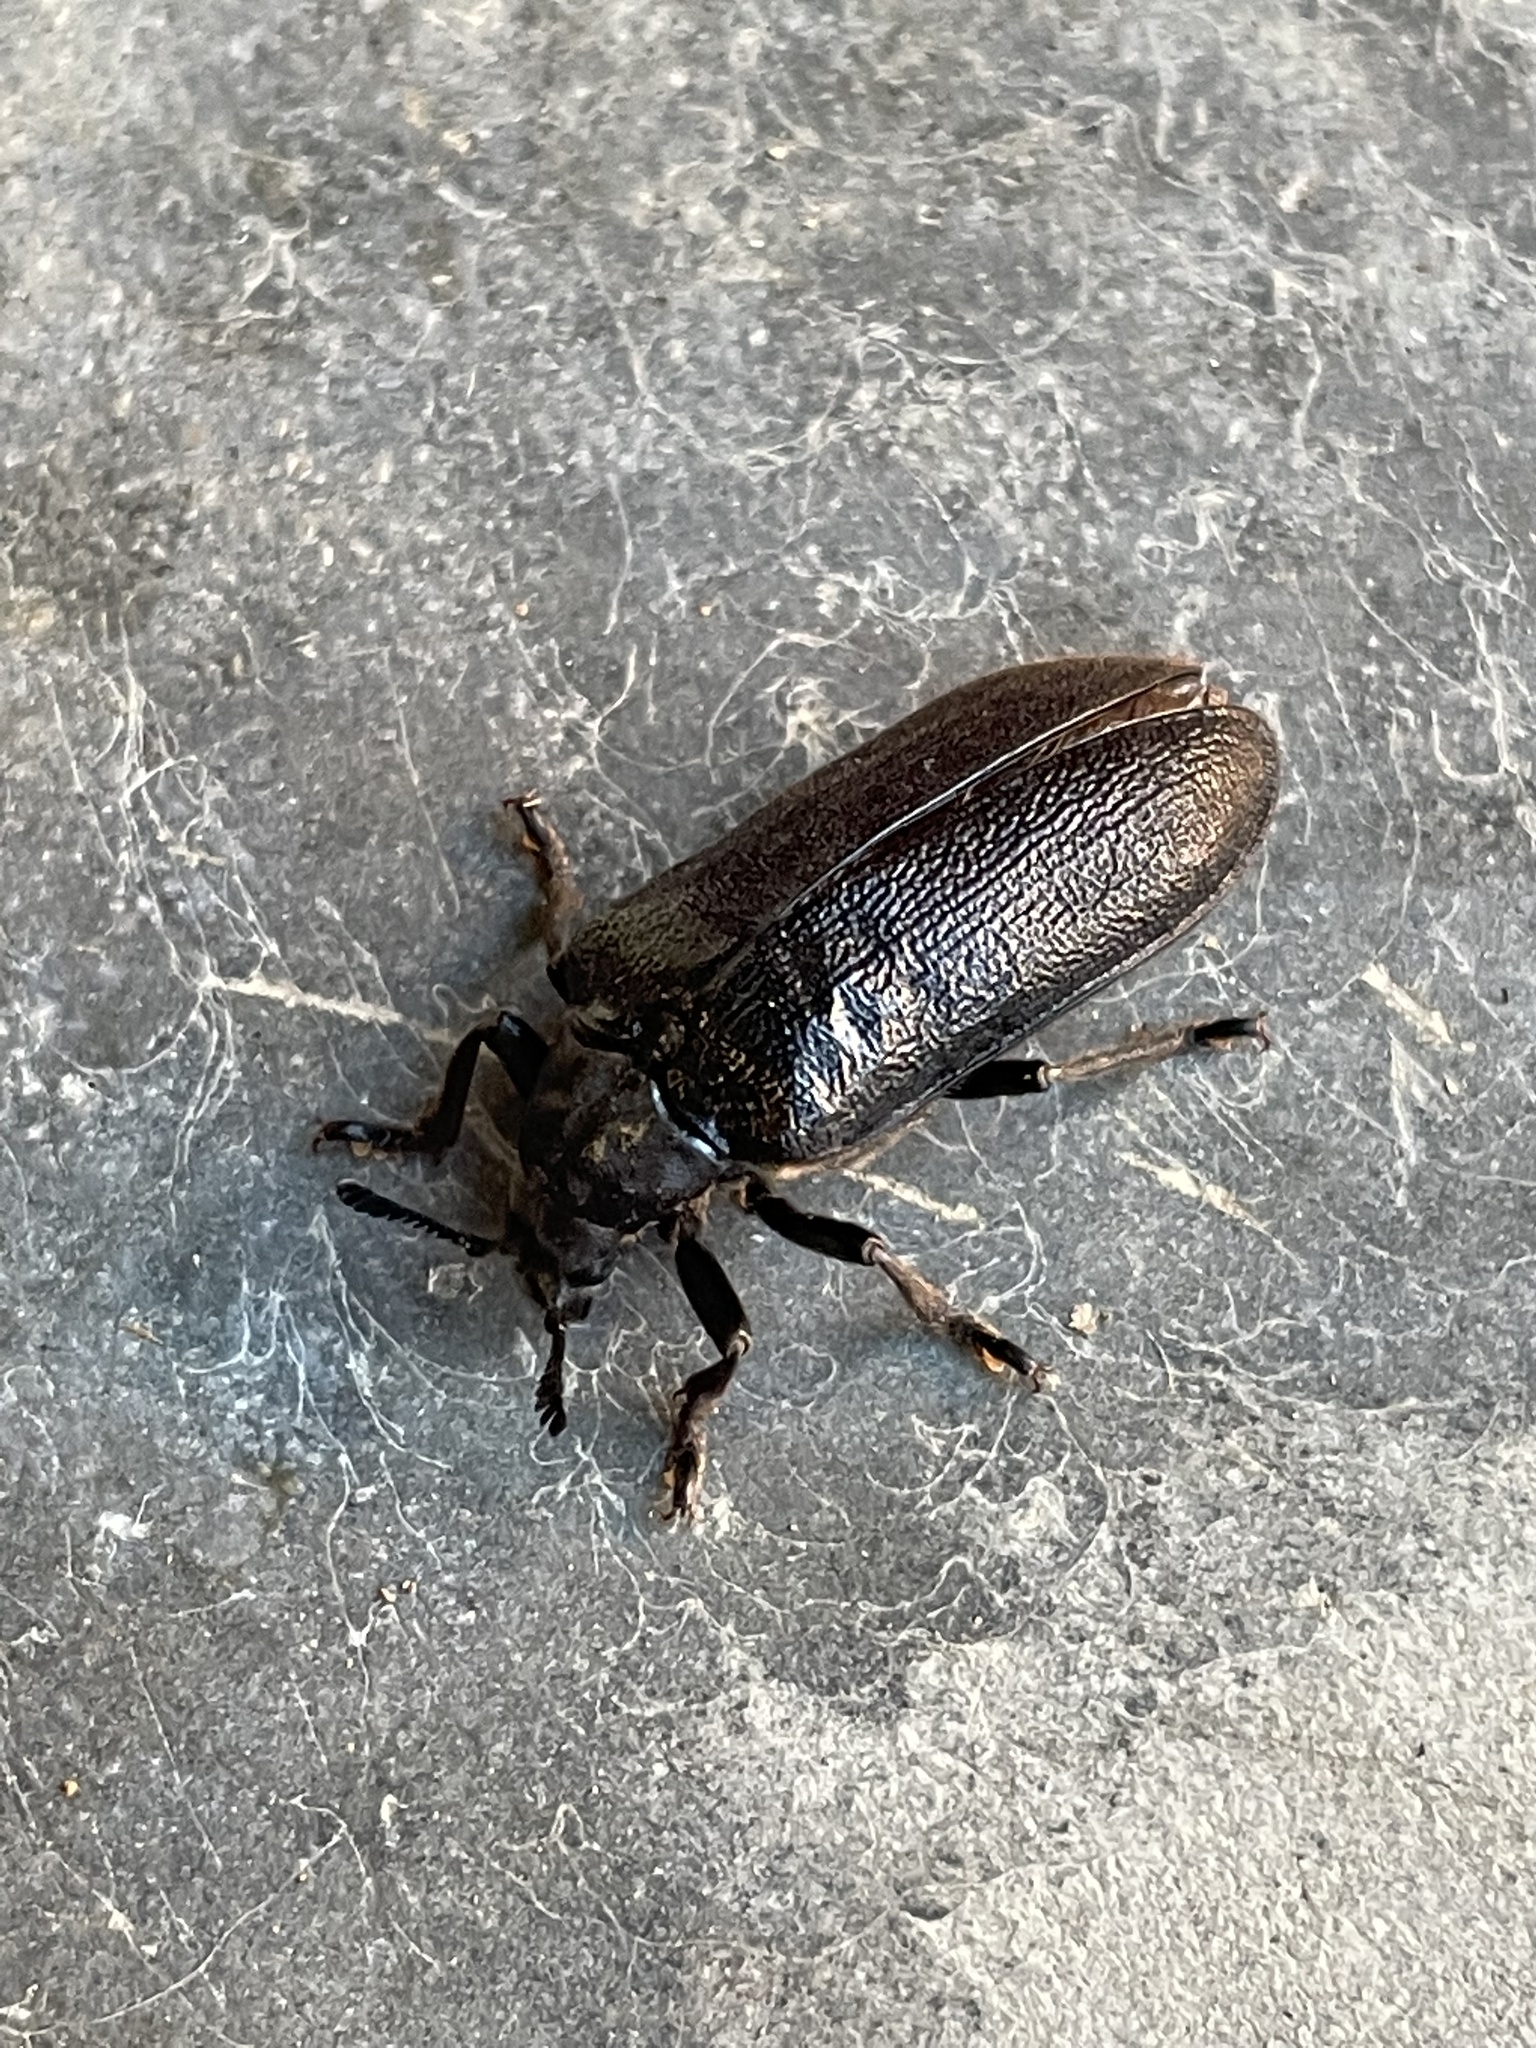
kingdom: Animalia
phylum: Arthropoda
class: Insecta
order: Coleoptera
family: Rhipiceridae
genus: Sandalus
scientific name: Sandalus niger
